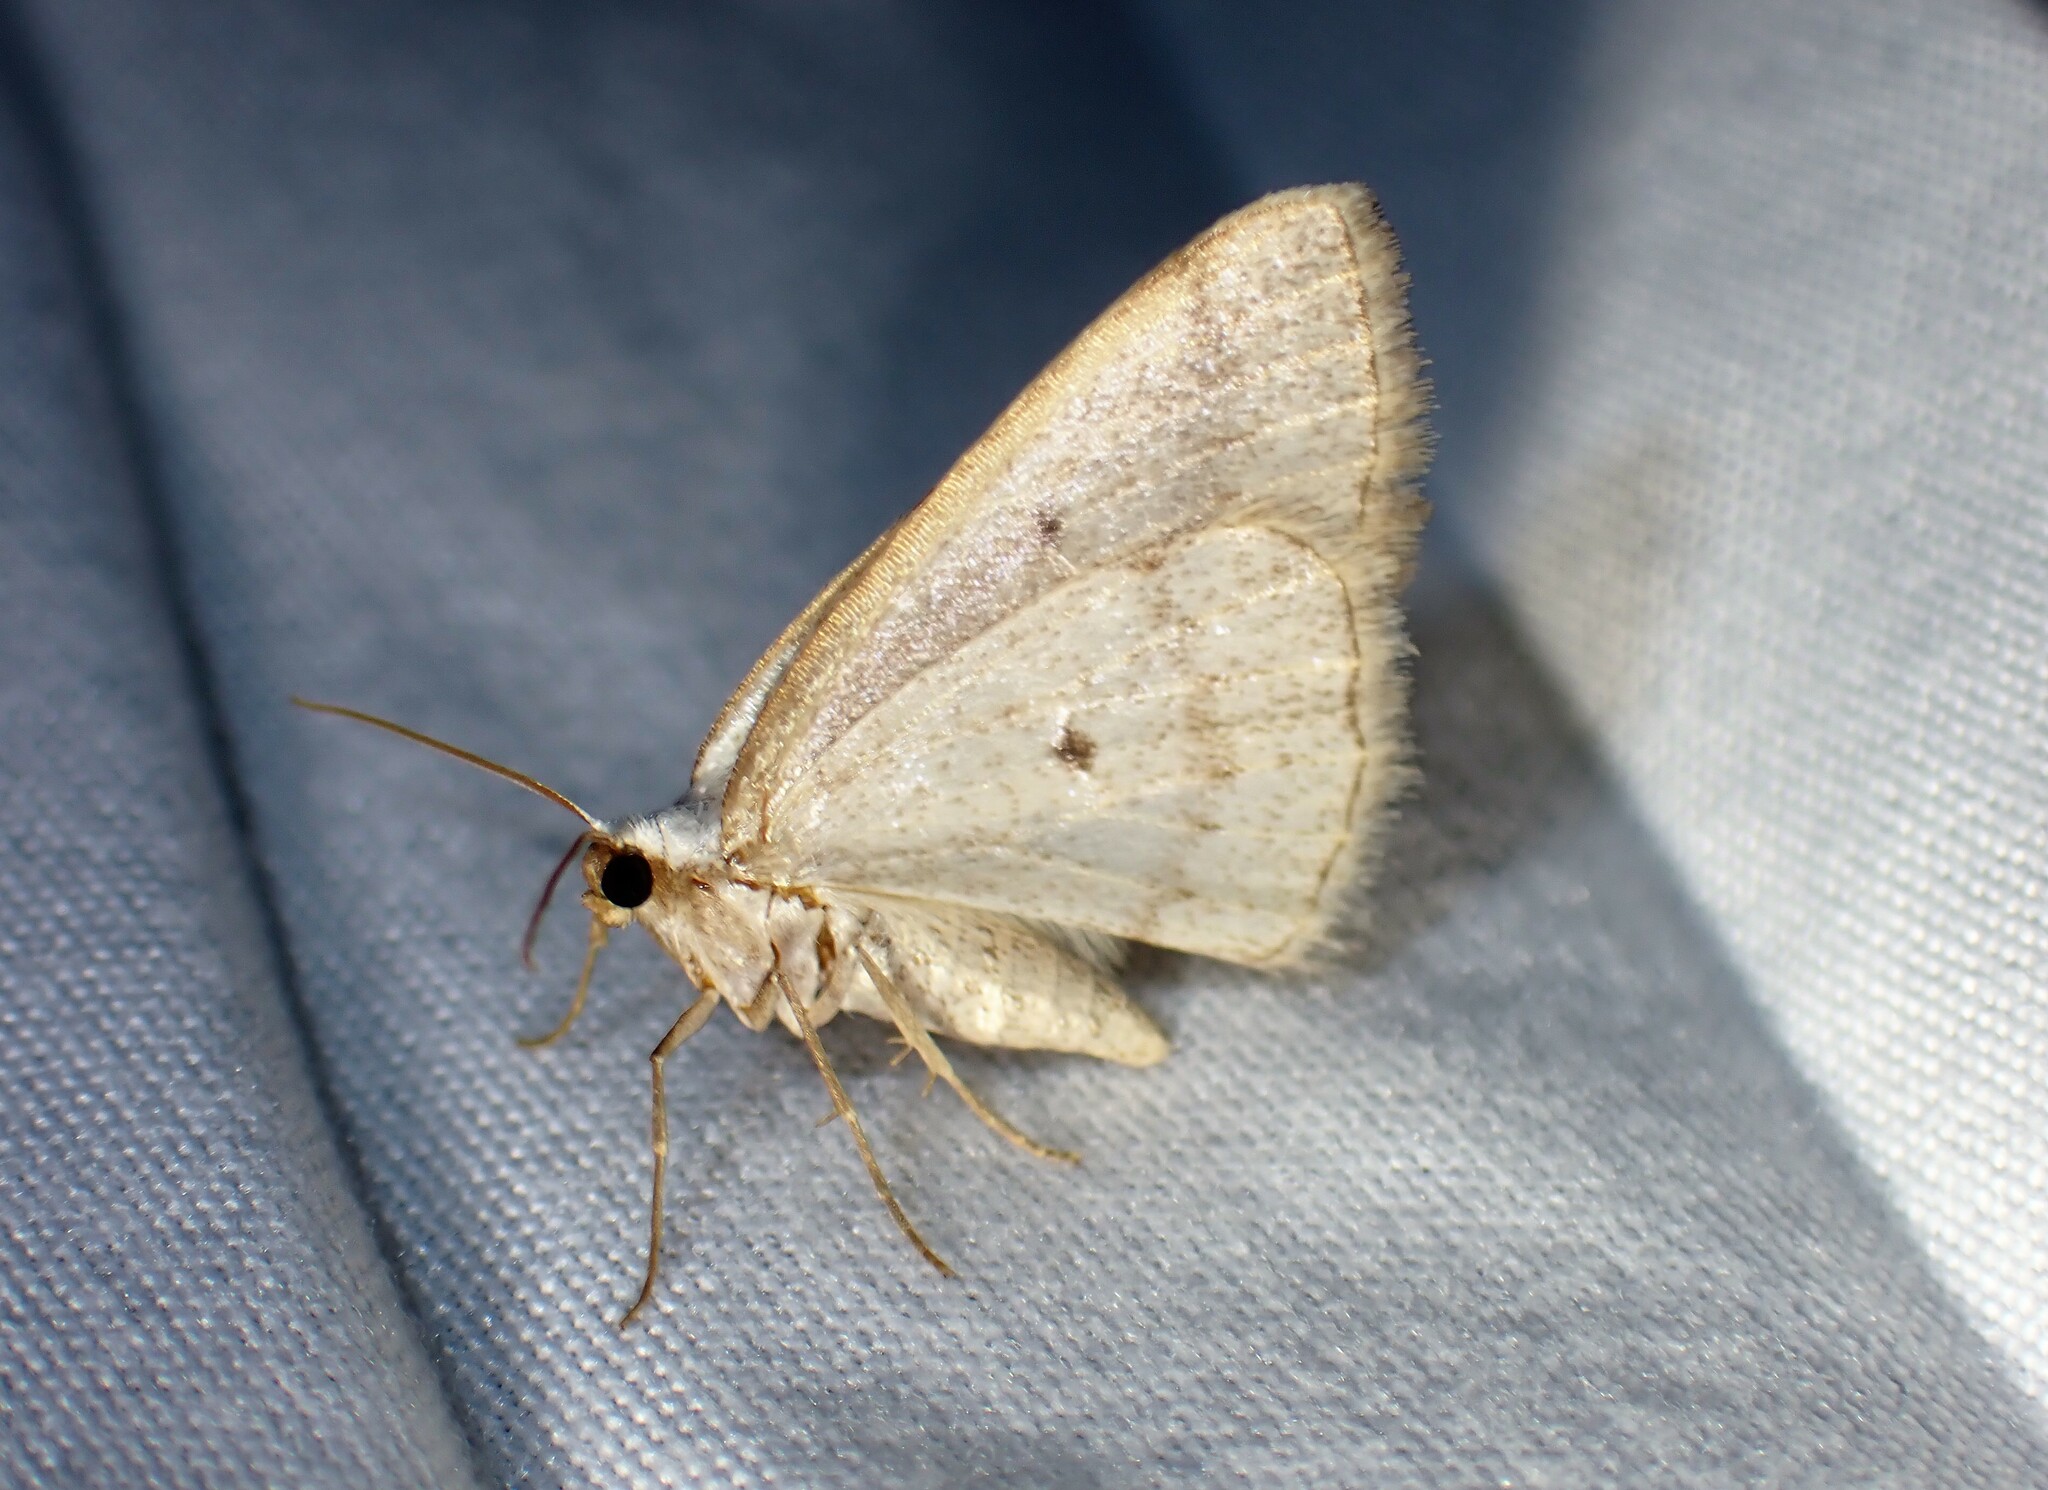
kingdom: Animalia
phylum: Arthropoda
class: Insecta
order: Lepidoptera
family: Geometridae
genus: Lomographa
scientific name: Lomographa glomeraria
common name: Gray spring moth
